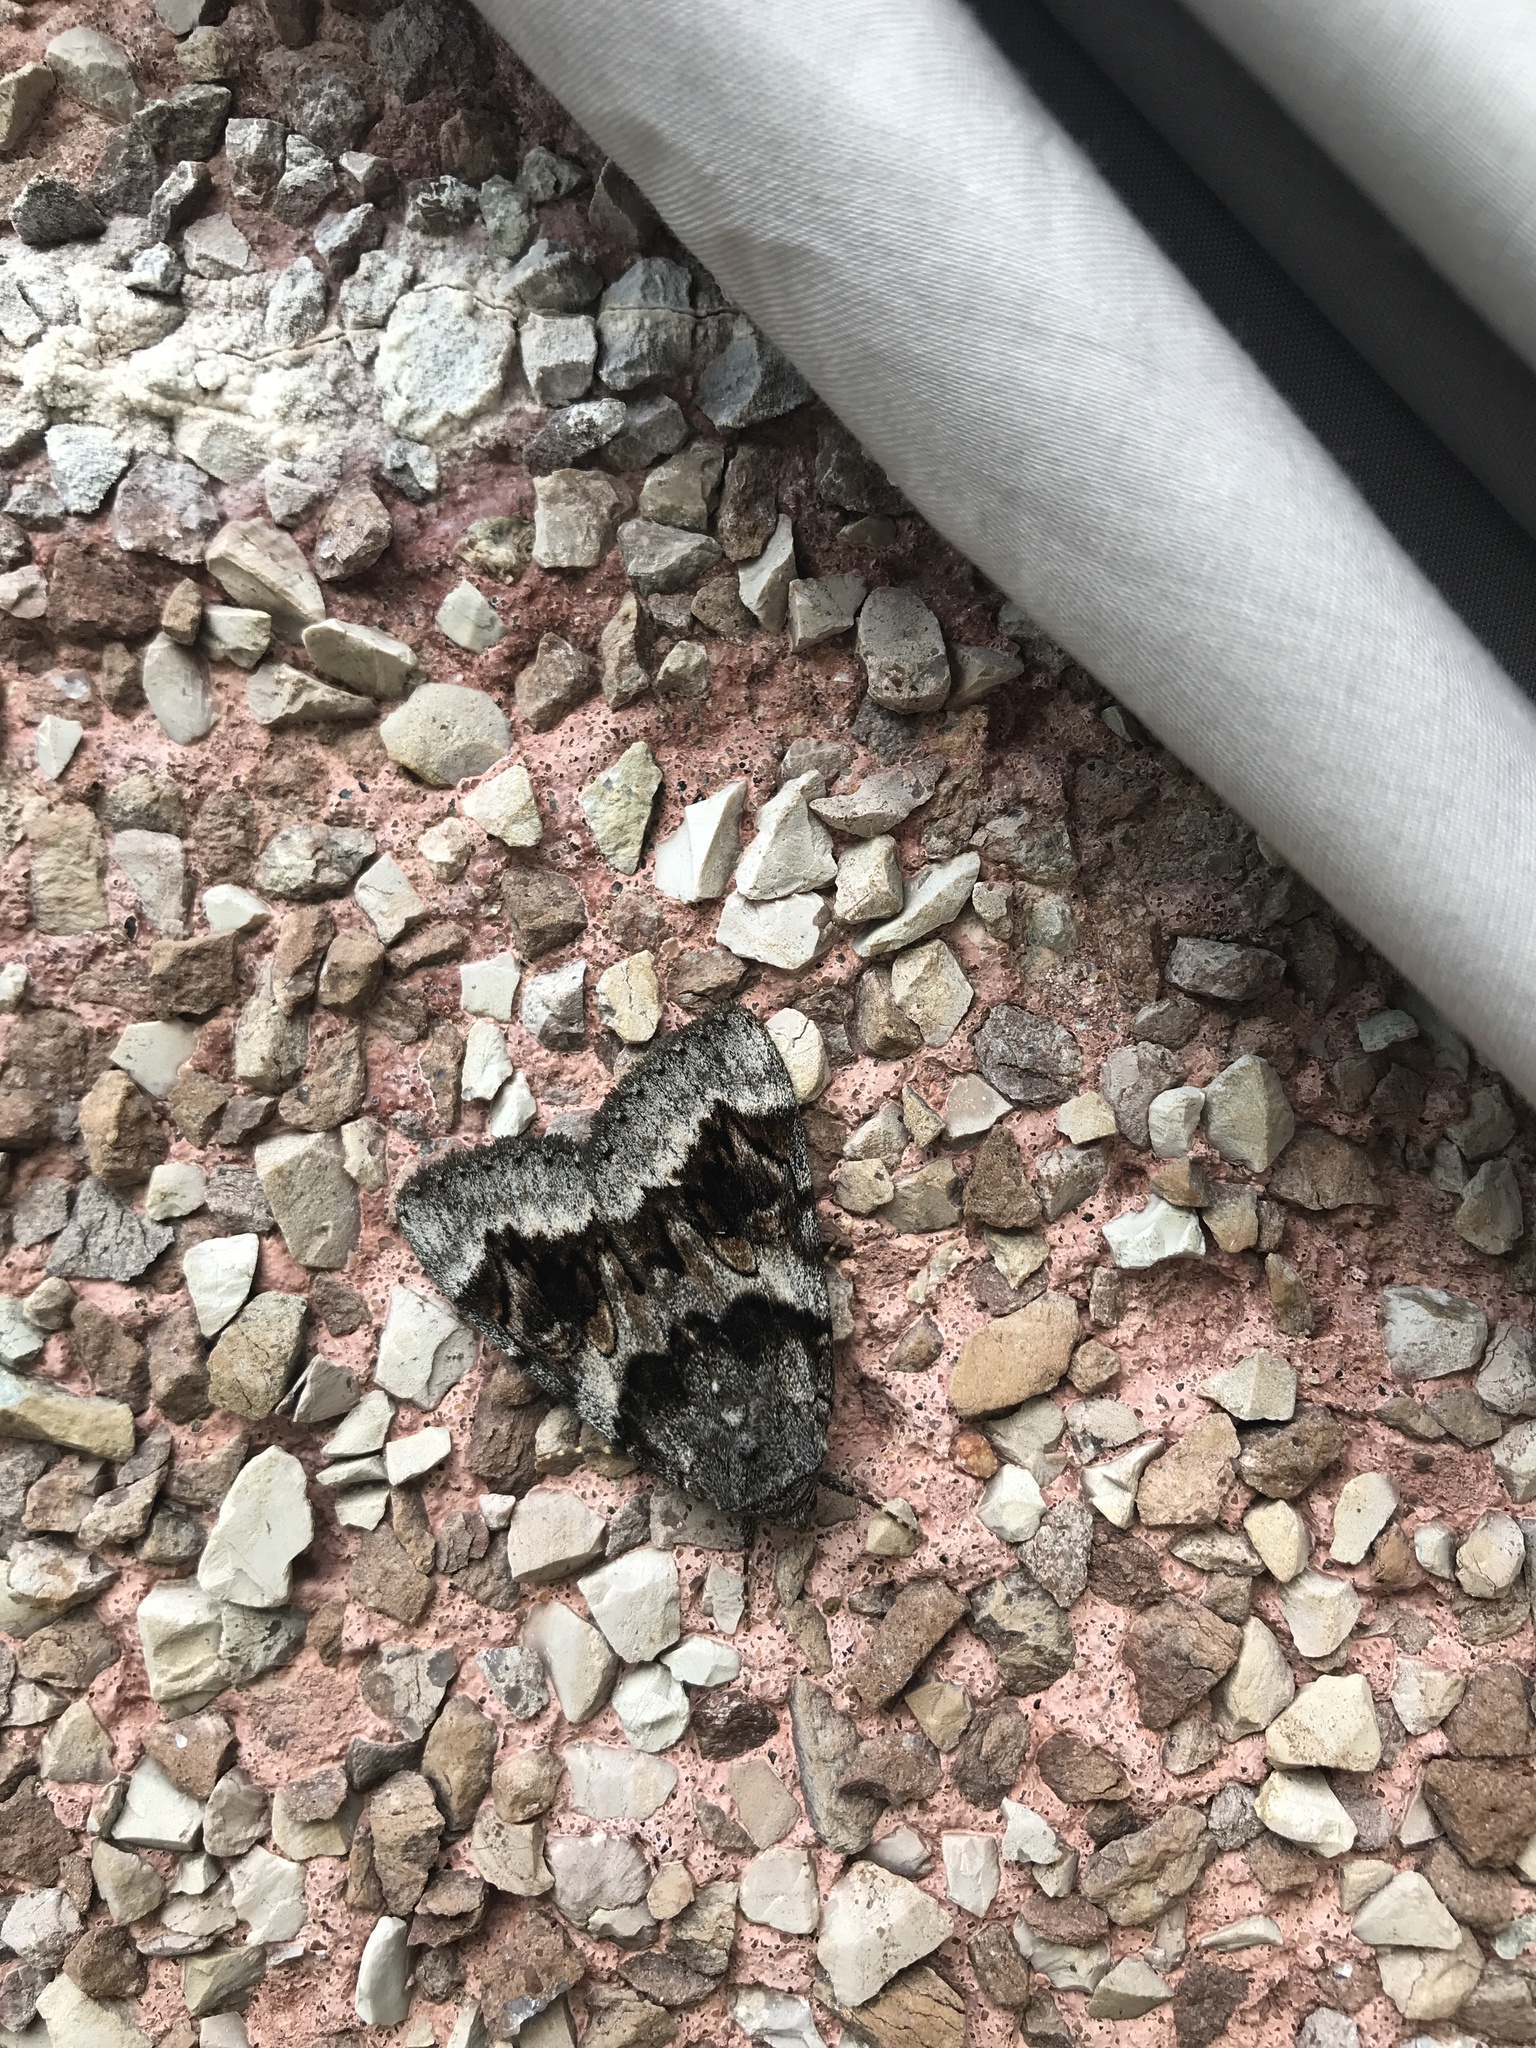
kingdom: Animalia
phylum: Arthropoda
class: Insecta
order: Lepidoptera
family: Erebidae
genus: Catocala
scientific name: Catocala badia
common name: Bay underwing
